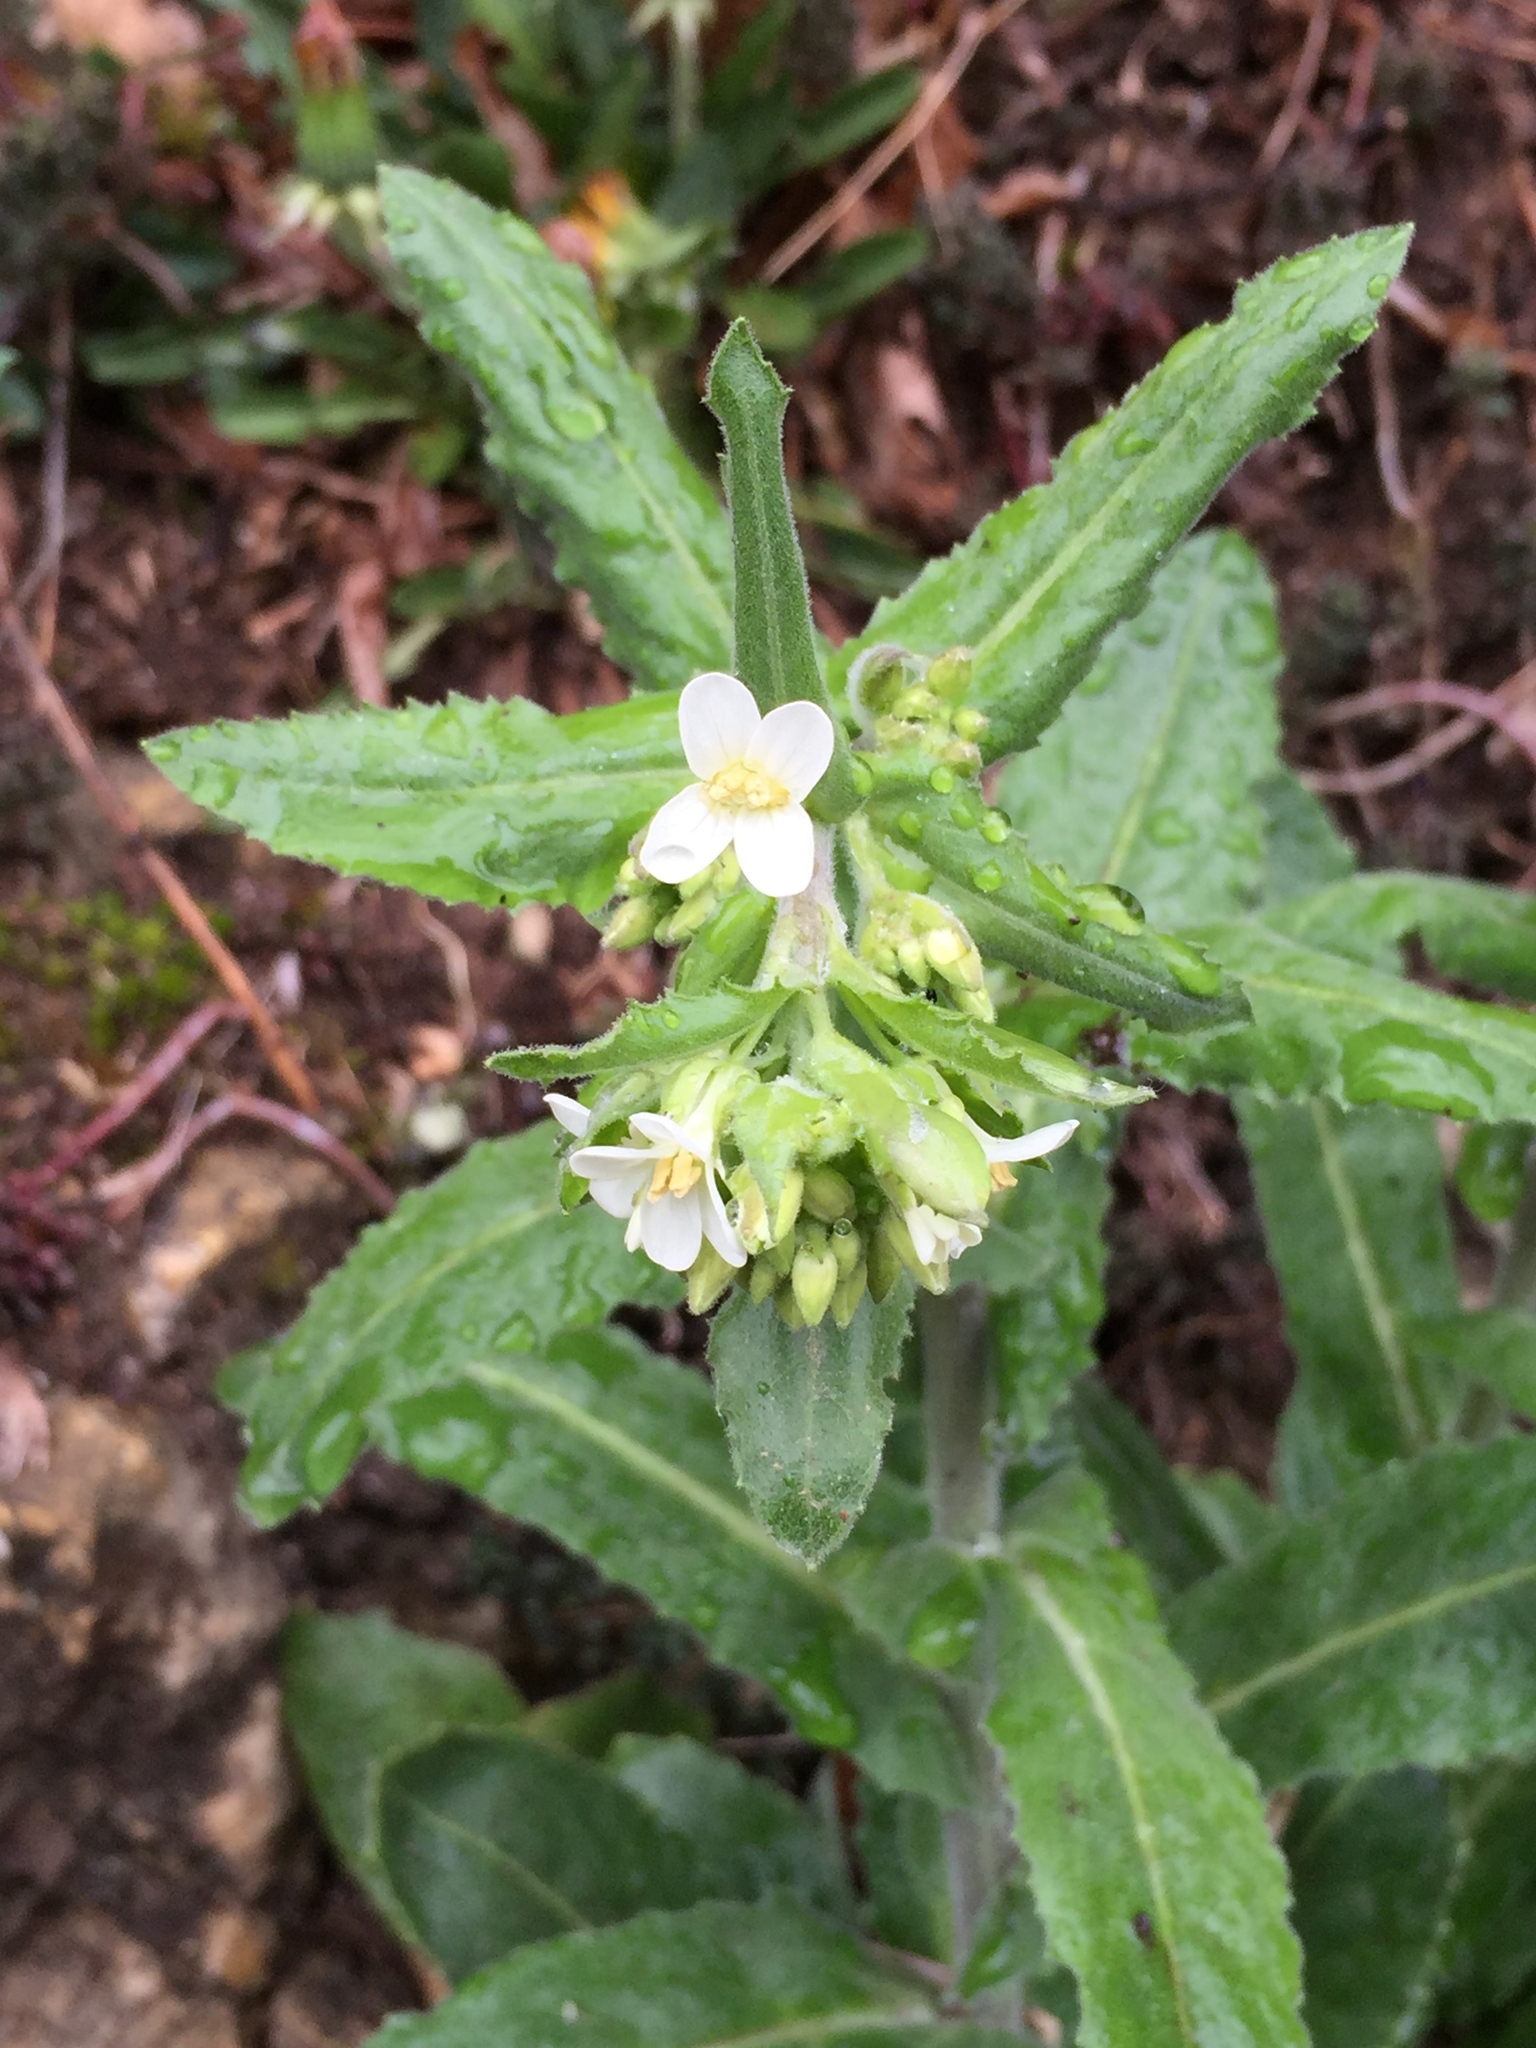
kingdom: Plantae
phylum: Tracheophyta
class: Magnoliopsida
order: Brassicales
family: Brassicaceae
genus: Pseudoturritis
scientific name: Pseudoturritis turrita
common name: Tower cress
